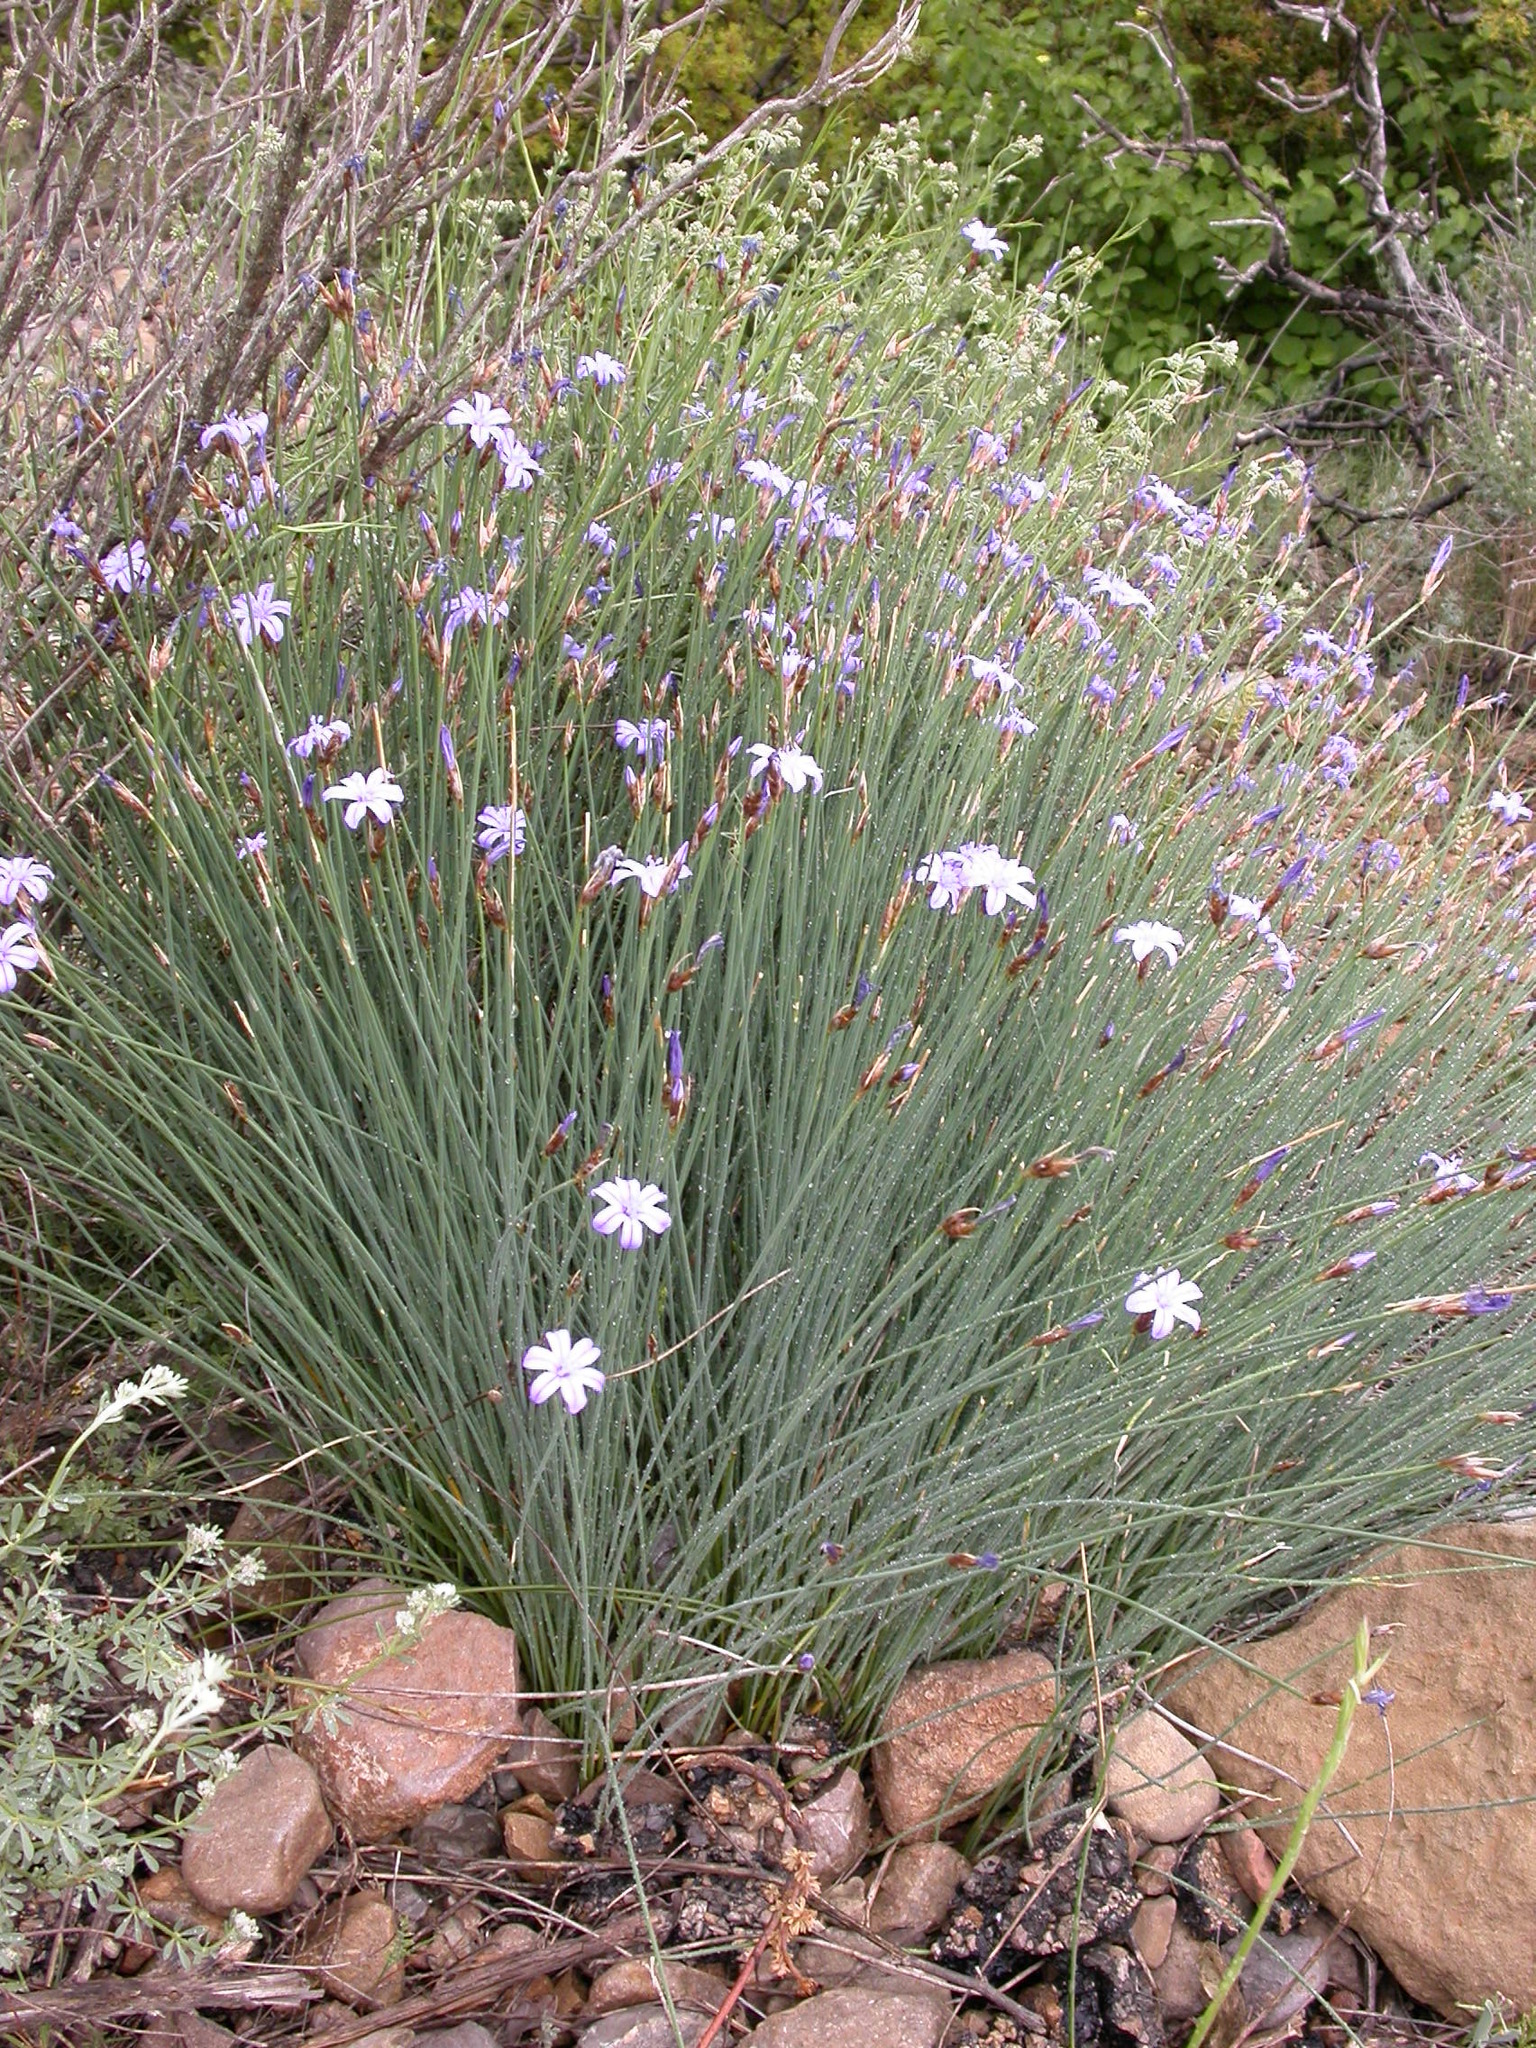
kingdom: Plantae
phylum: Tracheophyta
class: Liliopsida
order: Asparagales
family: Asparagaceae
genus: Aphyllanthes
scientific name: Aphyllanthes monspeliensis
